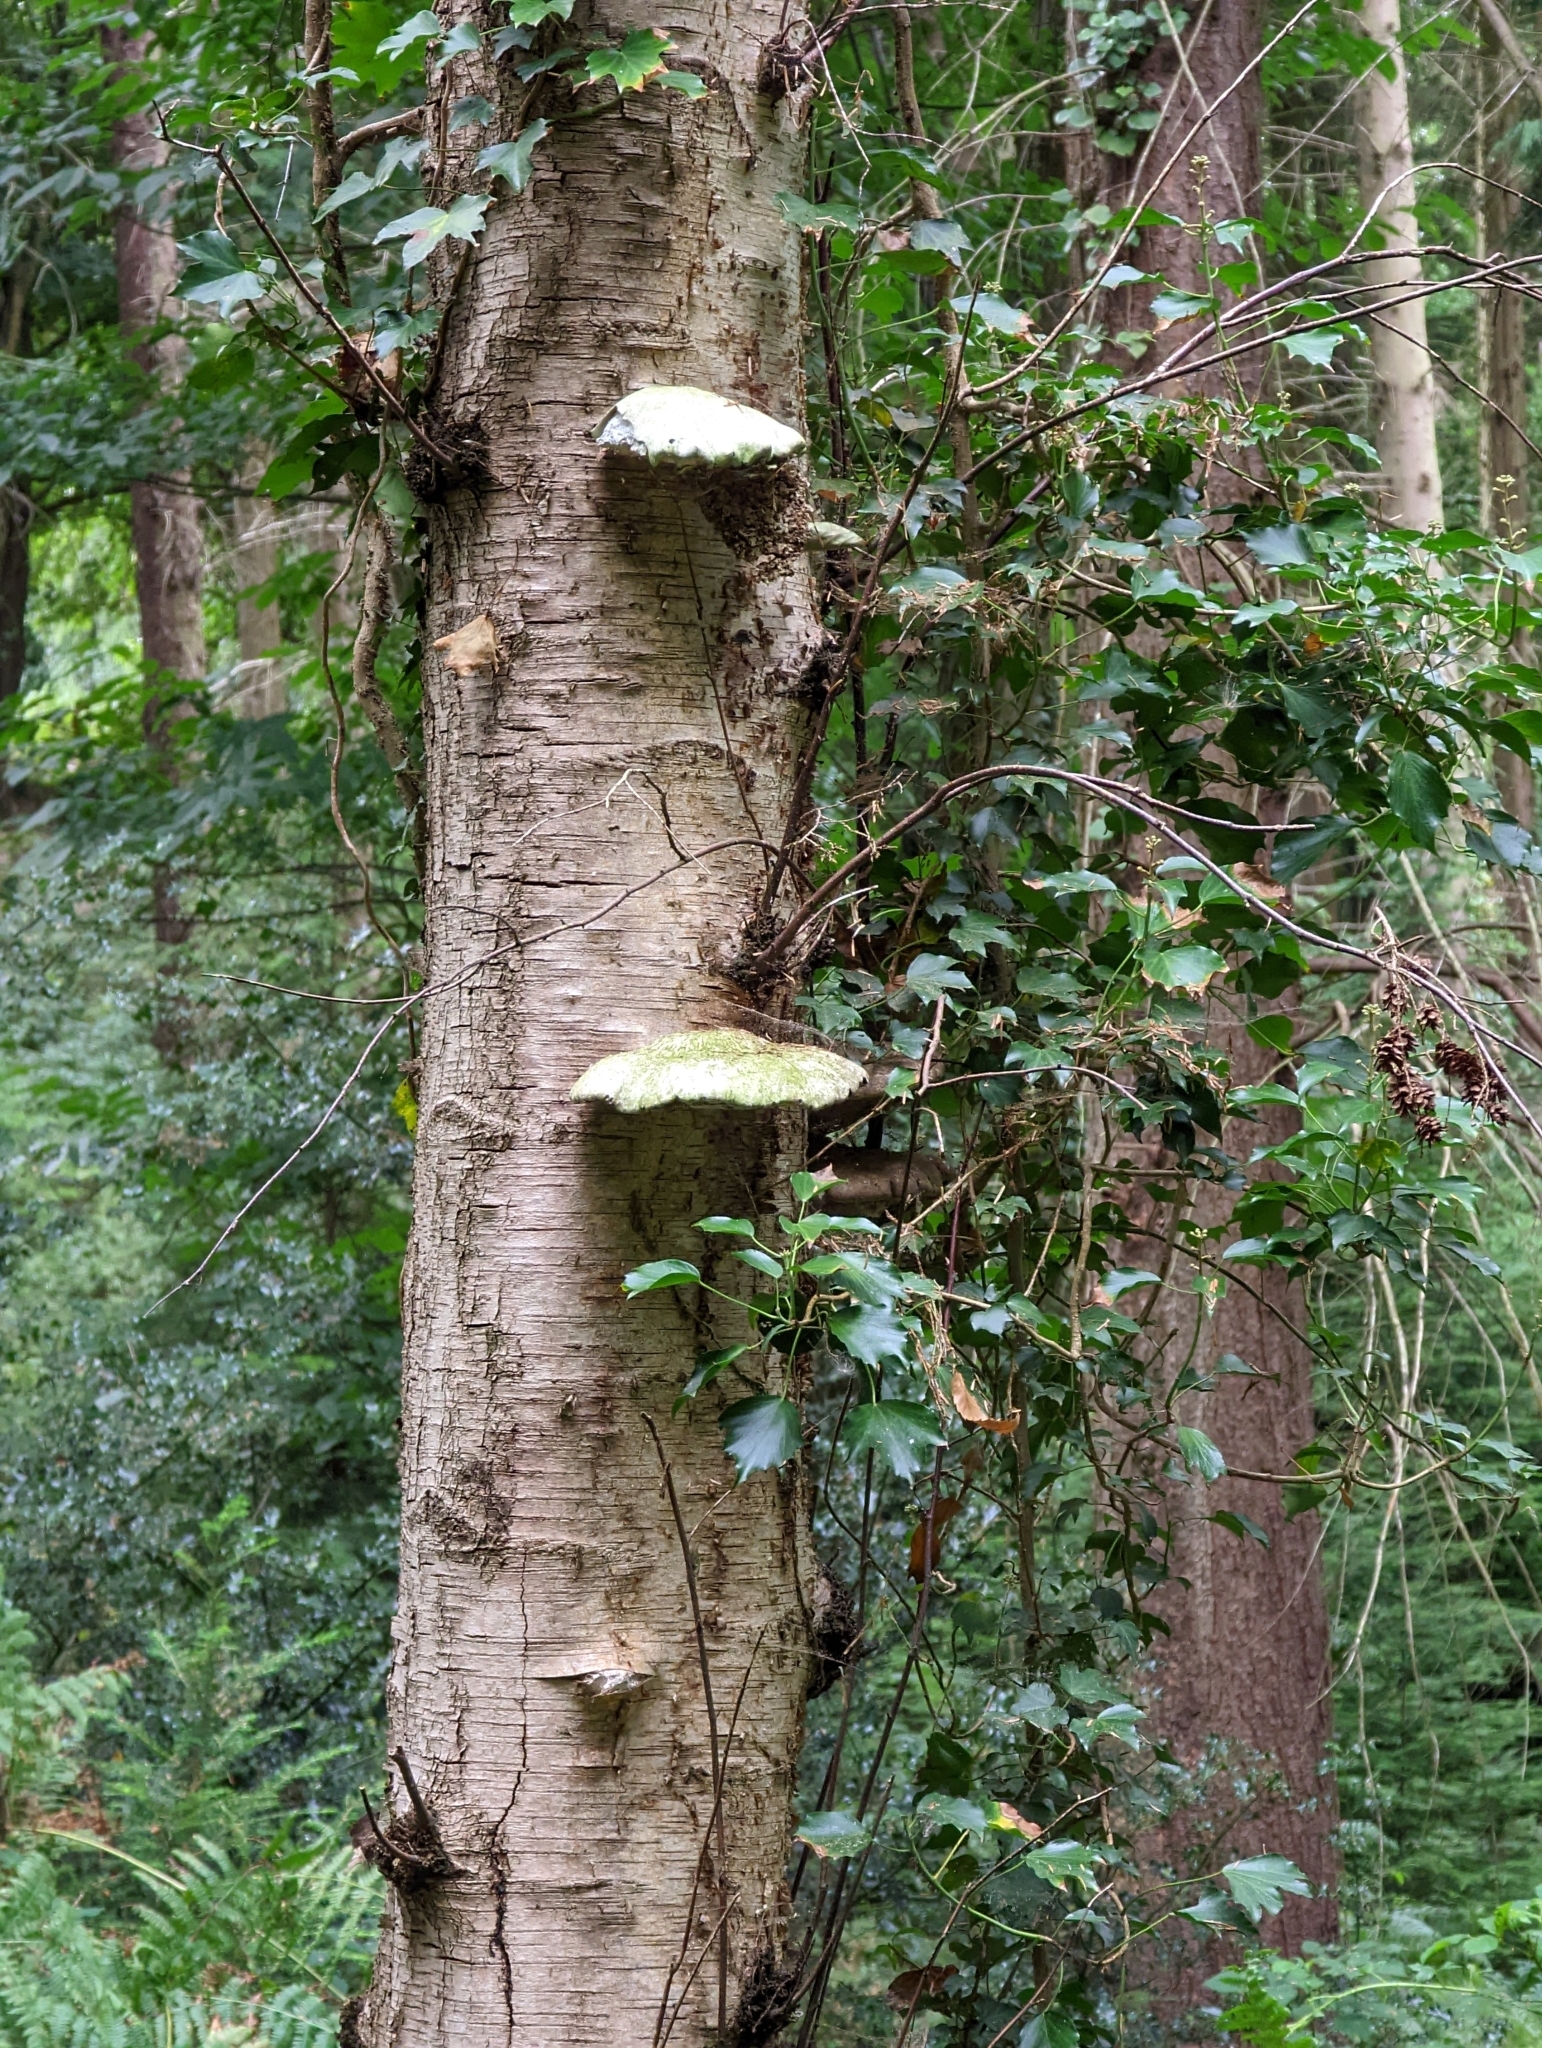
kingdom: Fungi
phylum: Basidiomycota
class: Agaricomycetes
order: Polyporales
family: Fomitopsidaceae
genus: Fomitopsis
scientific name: Fomitopsis betulina
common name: Birch polypore
